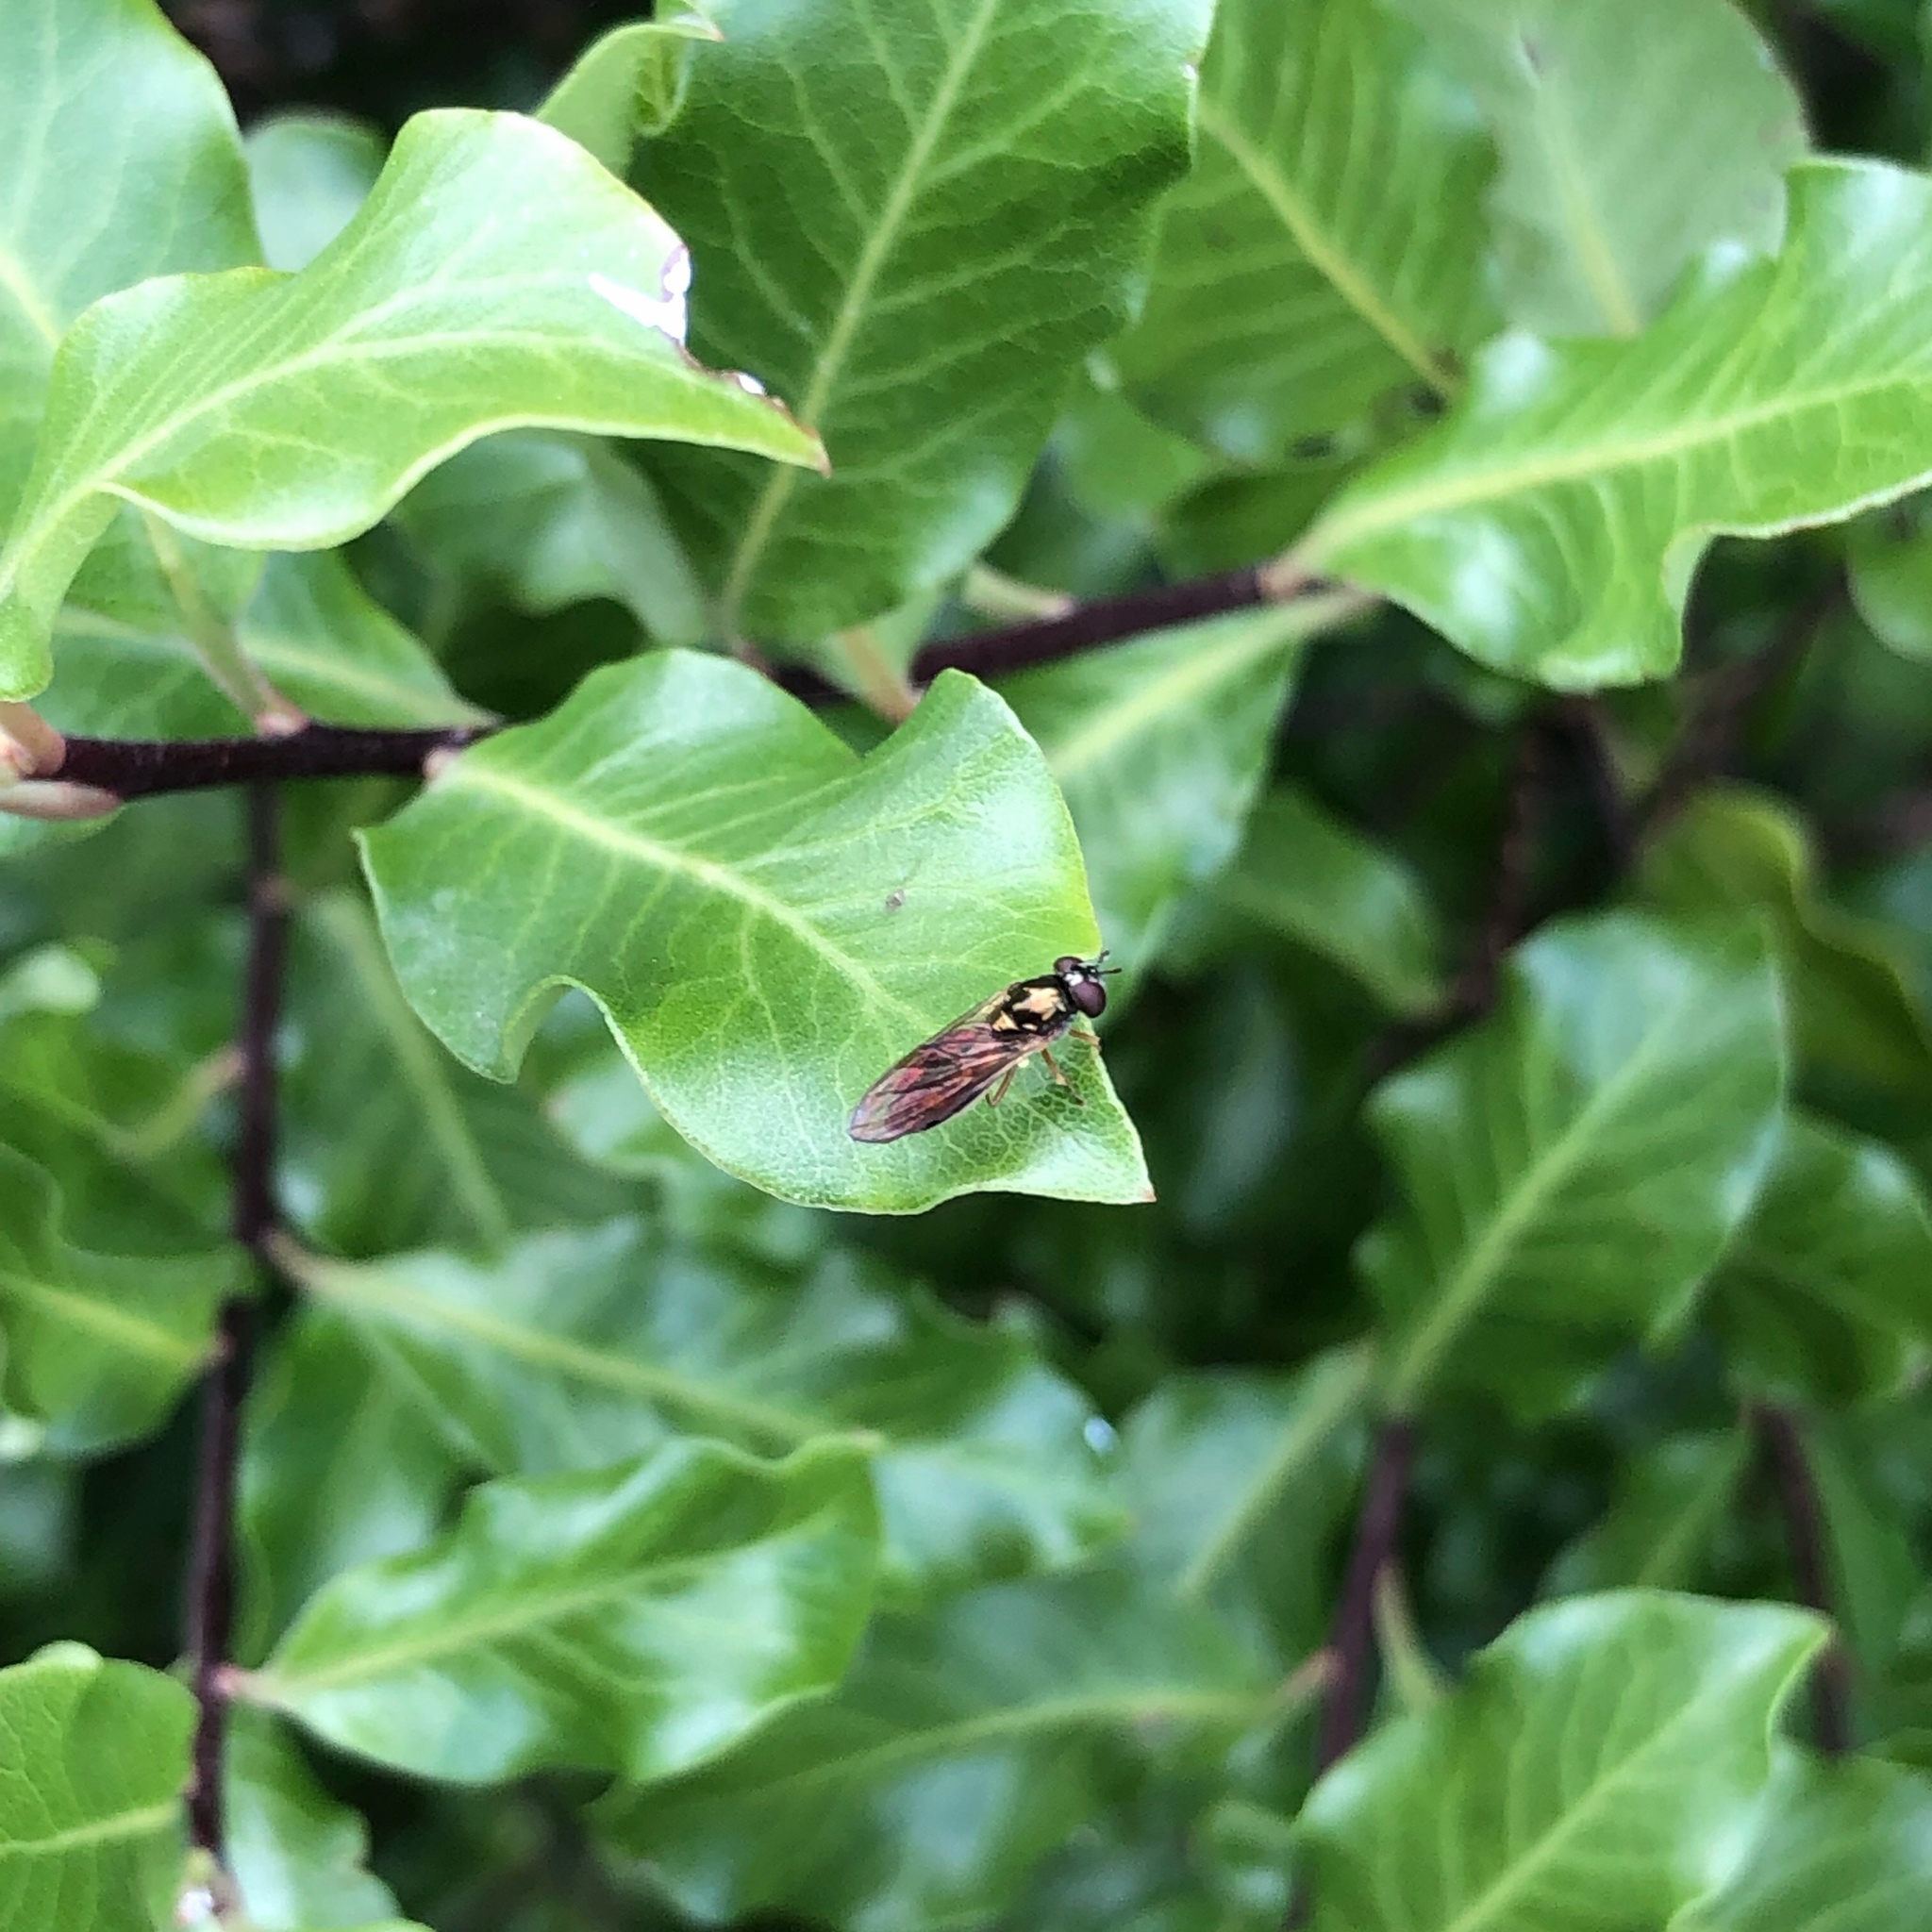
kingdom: Animalia
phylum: Arthropoda
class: Insecta
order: Diptera
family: Syrphidae
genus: Melanostoma
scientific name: Melanostoma fasciatum
